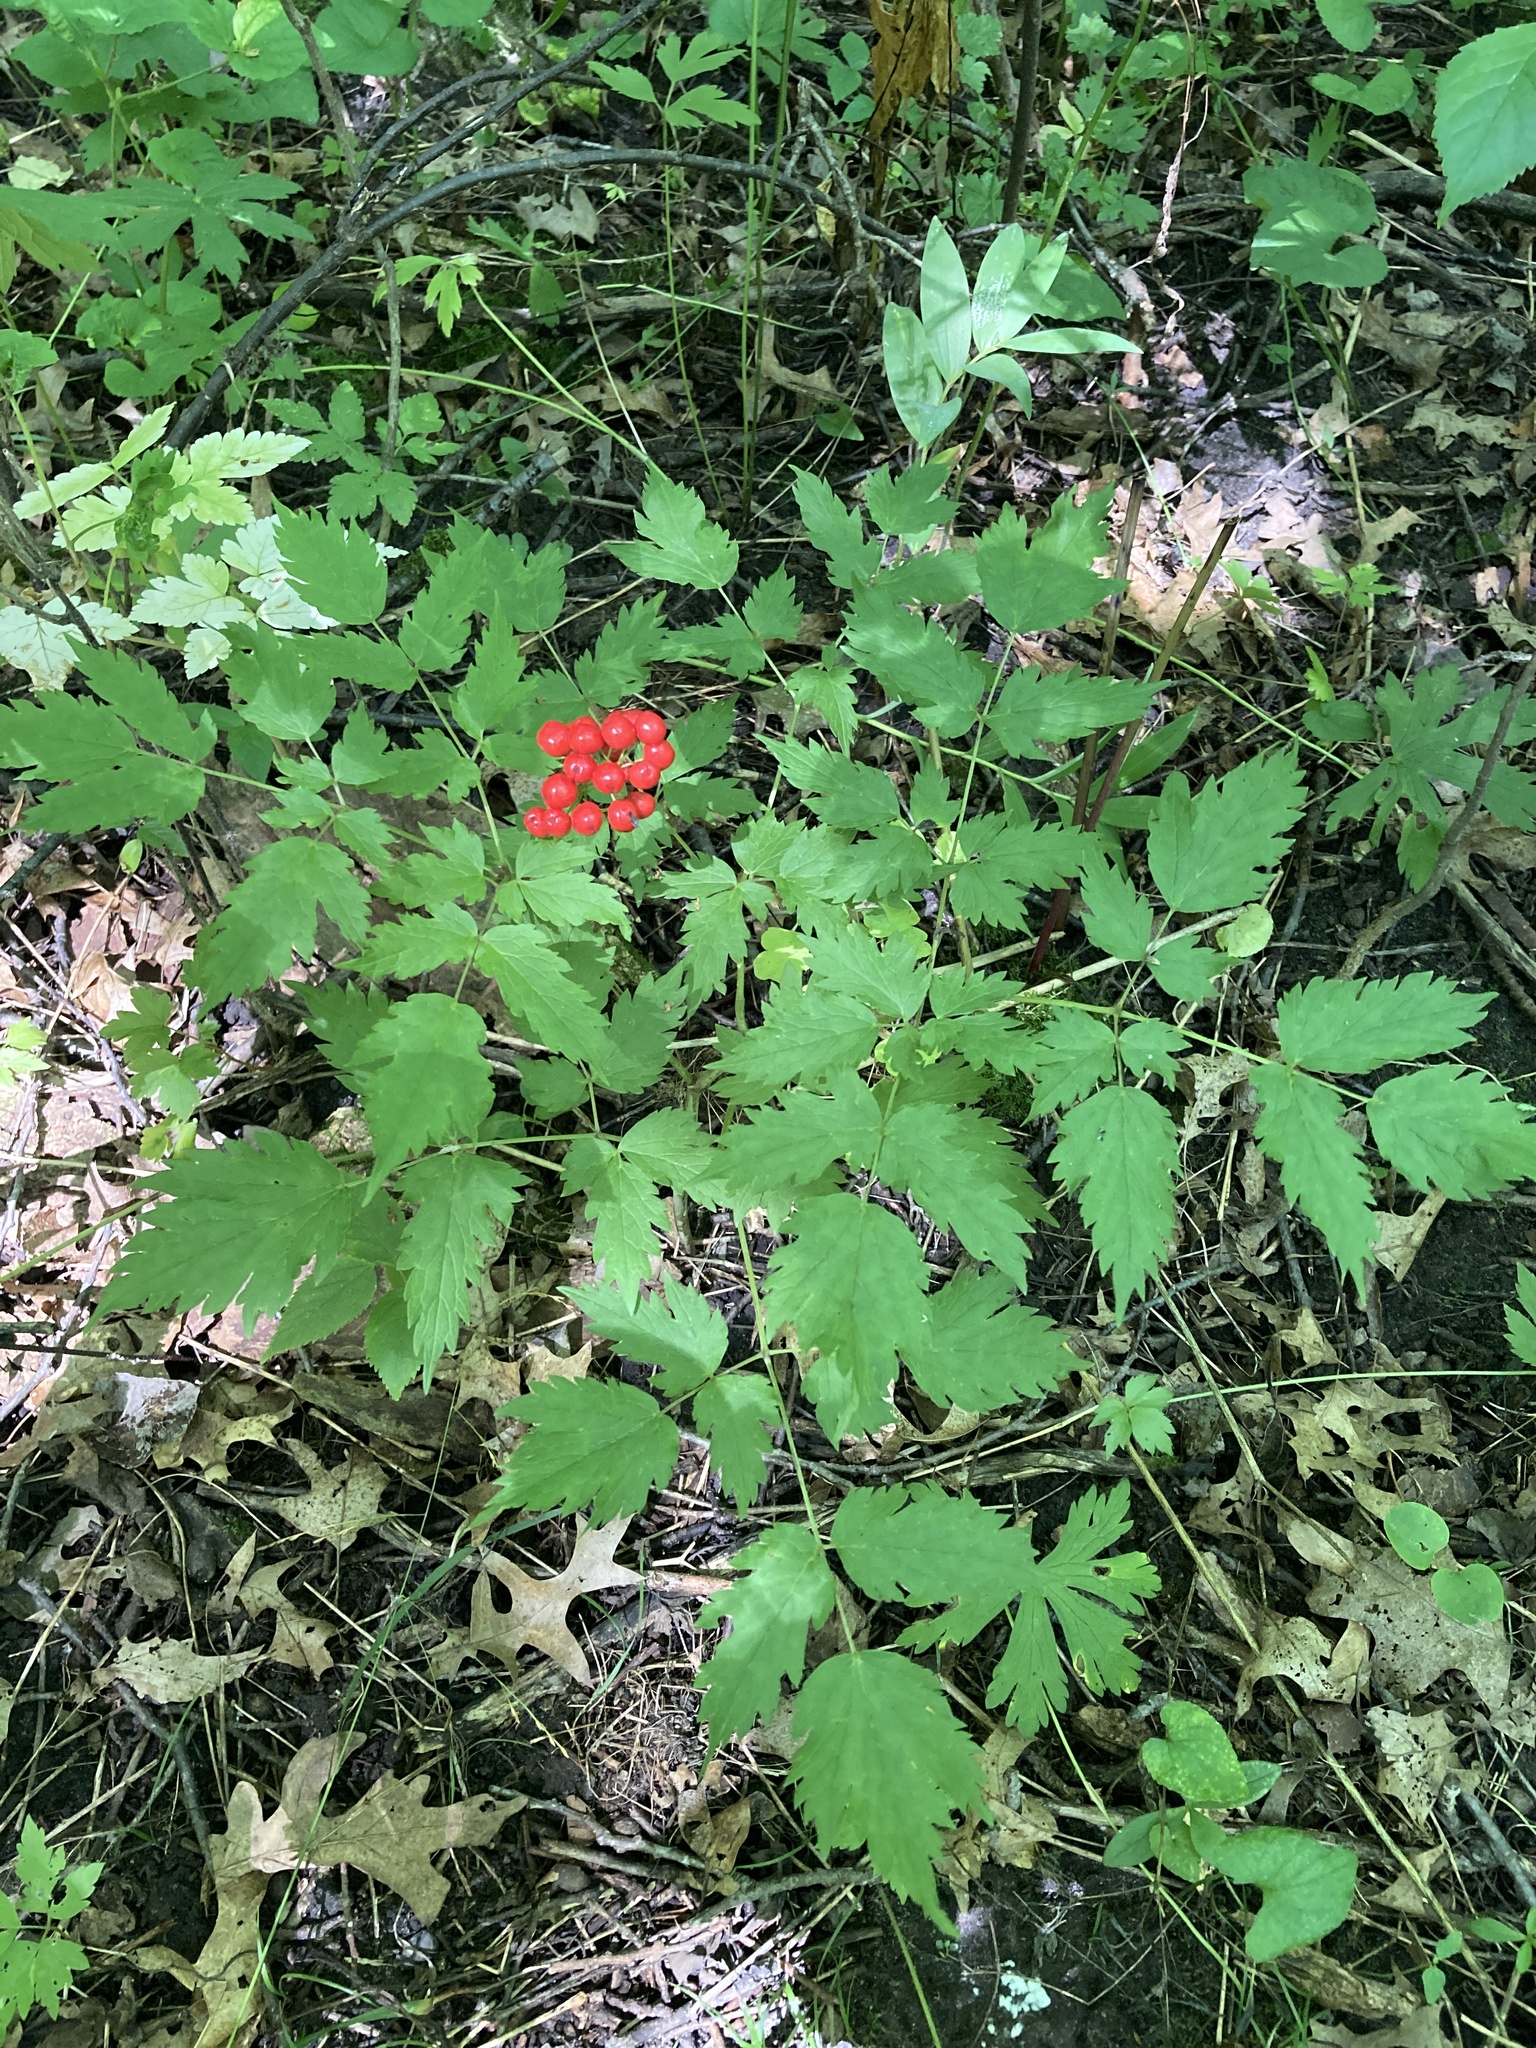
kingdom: Plantae
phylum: Tracheophyta
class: Magnoliopsida
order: Ranunculales
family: Ranunculaceae
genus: Actaea
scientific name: Actaea rubra
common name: Red baneberry
